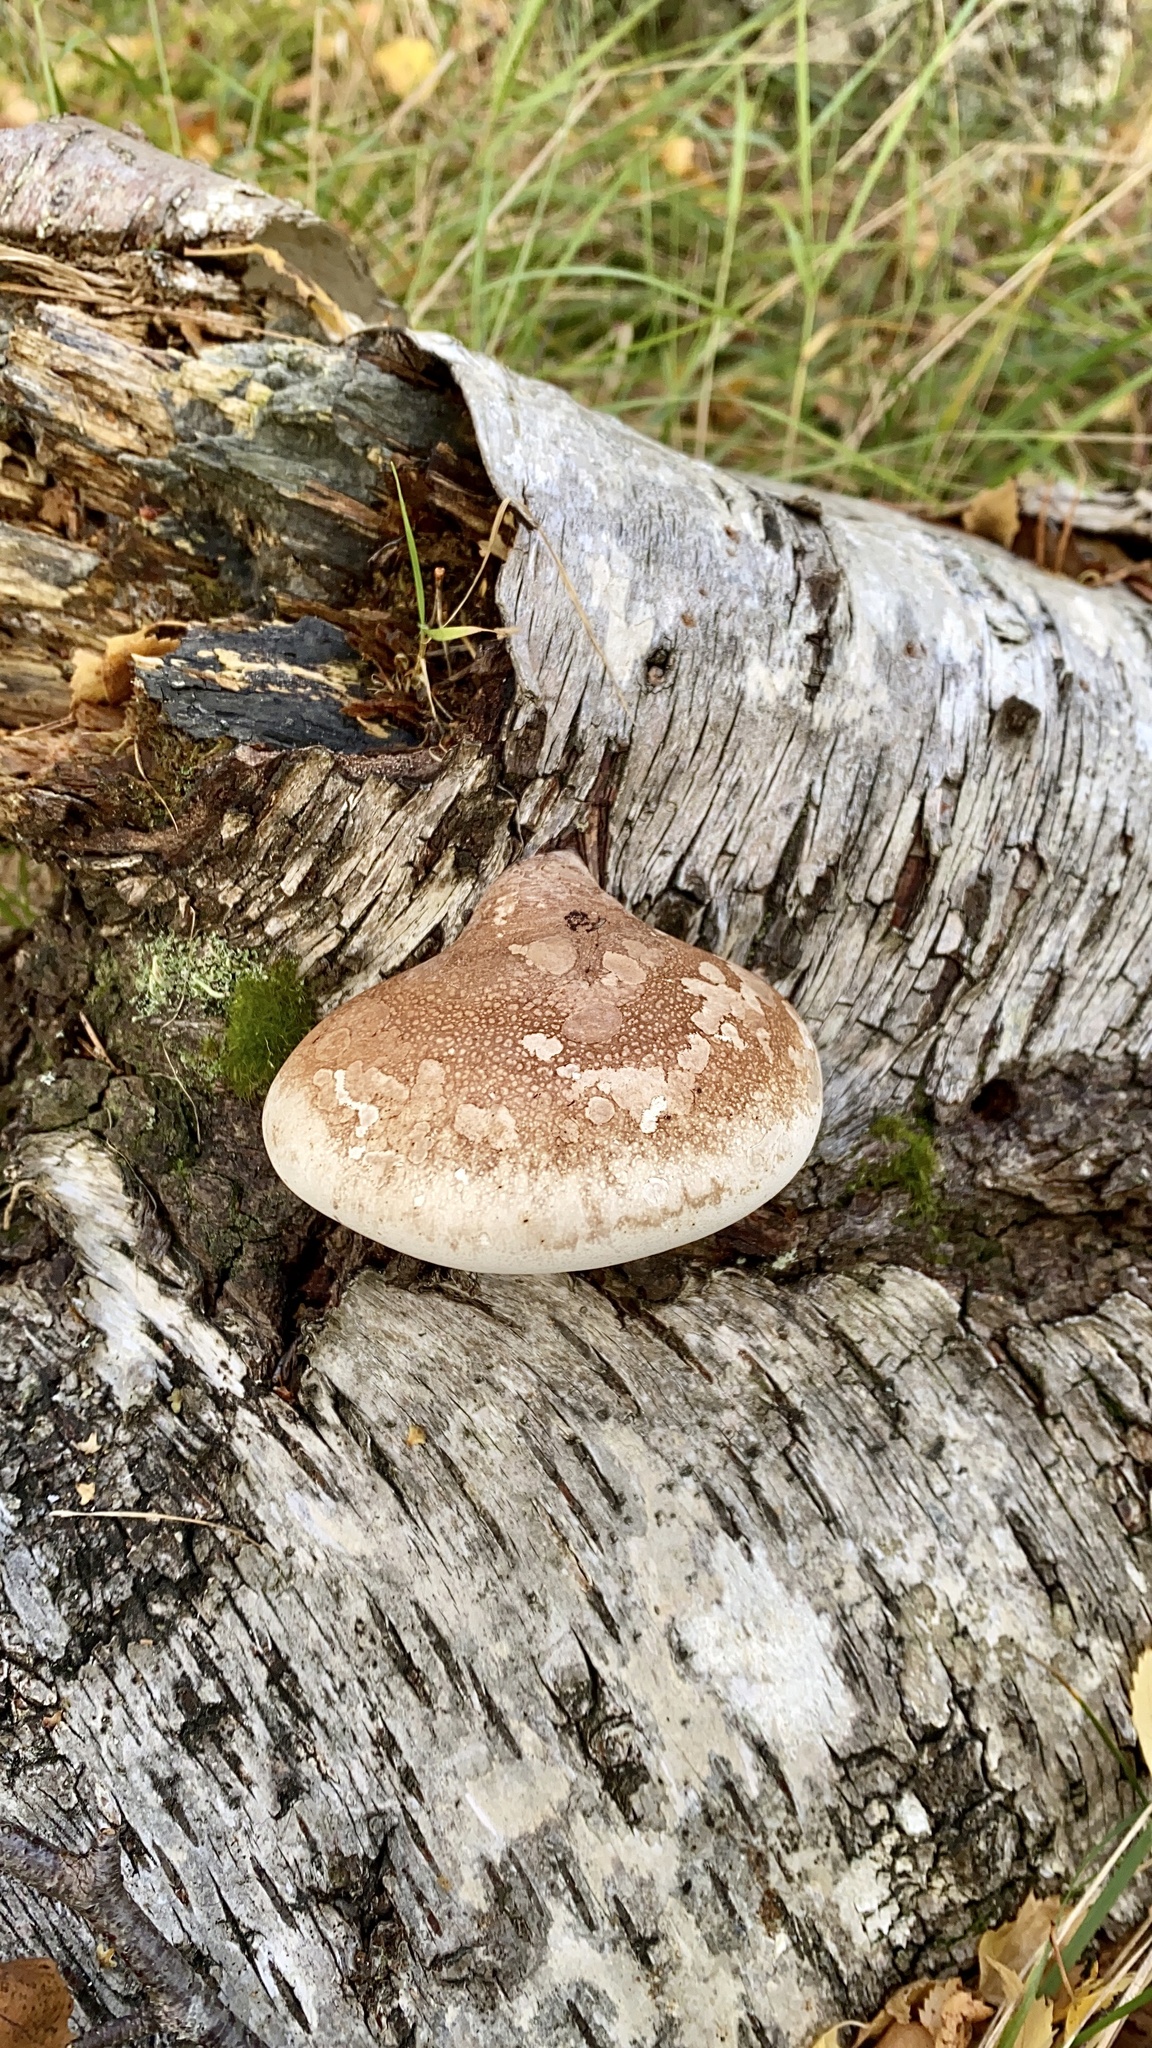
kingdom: Fungi
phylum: Basidiomycota
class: Agaricomycetes
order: Polyporales
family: Fomitopsidaceae
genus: Fomitopsis
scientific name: Fomitopsis betulina
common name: Birch polypore
